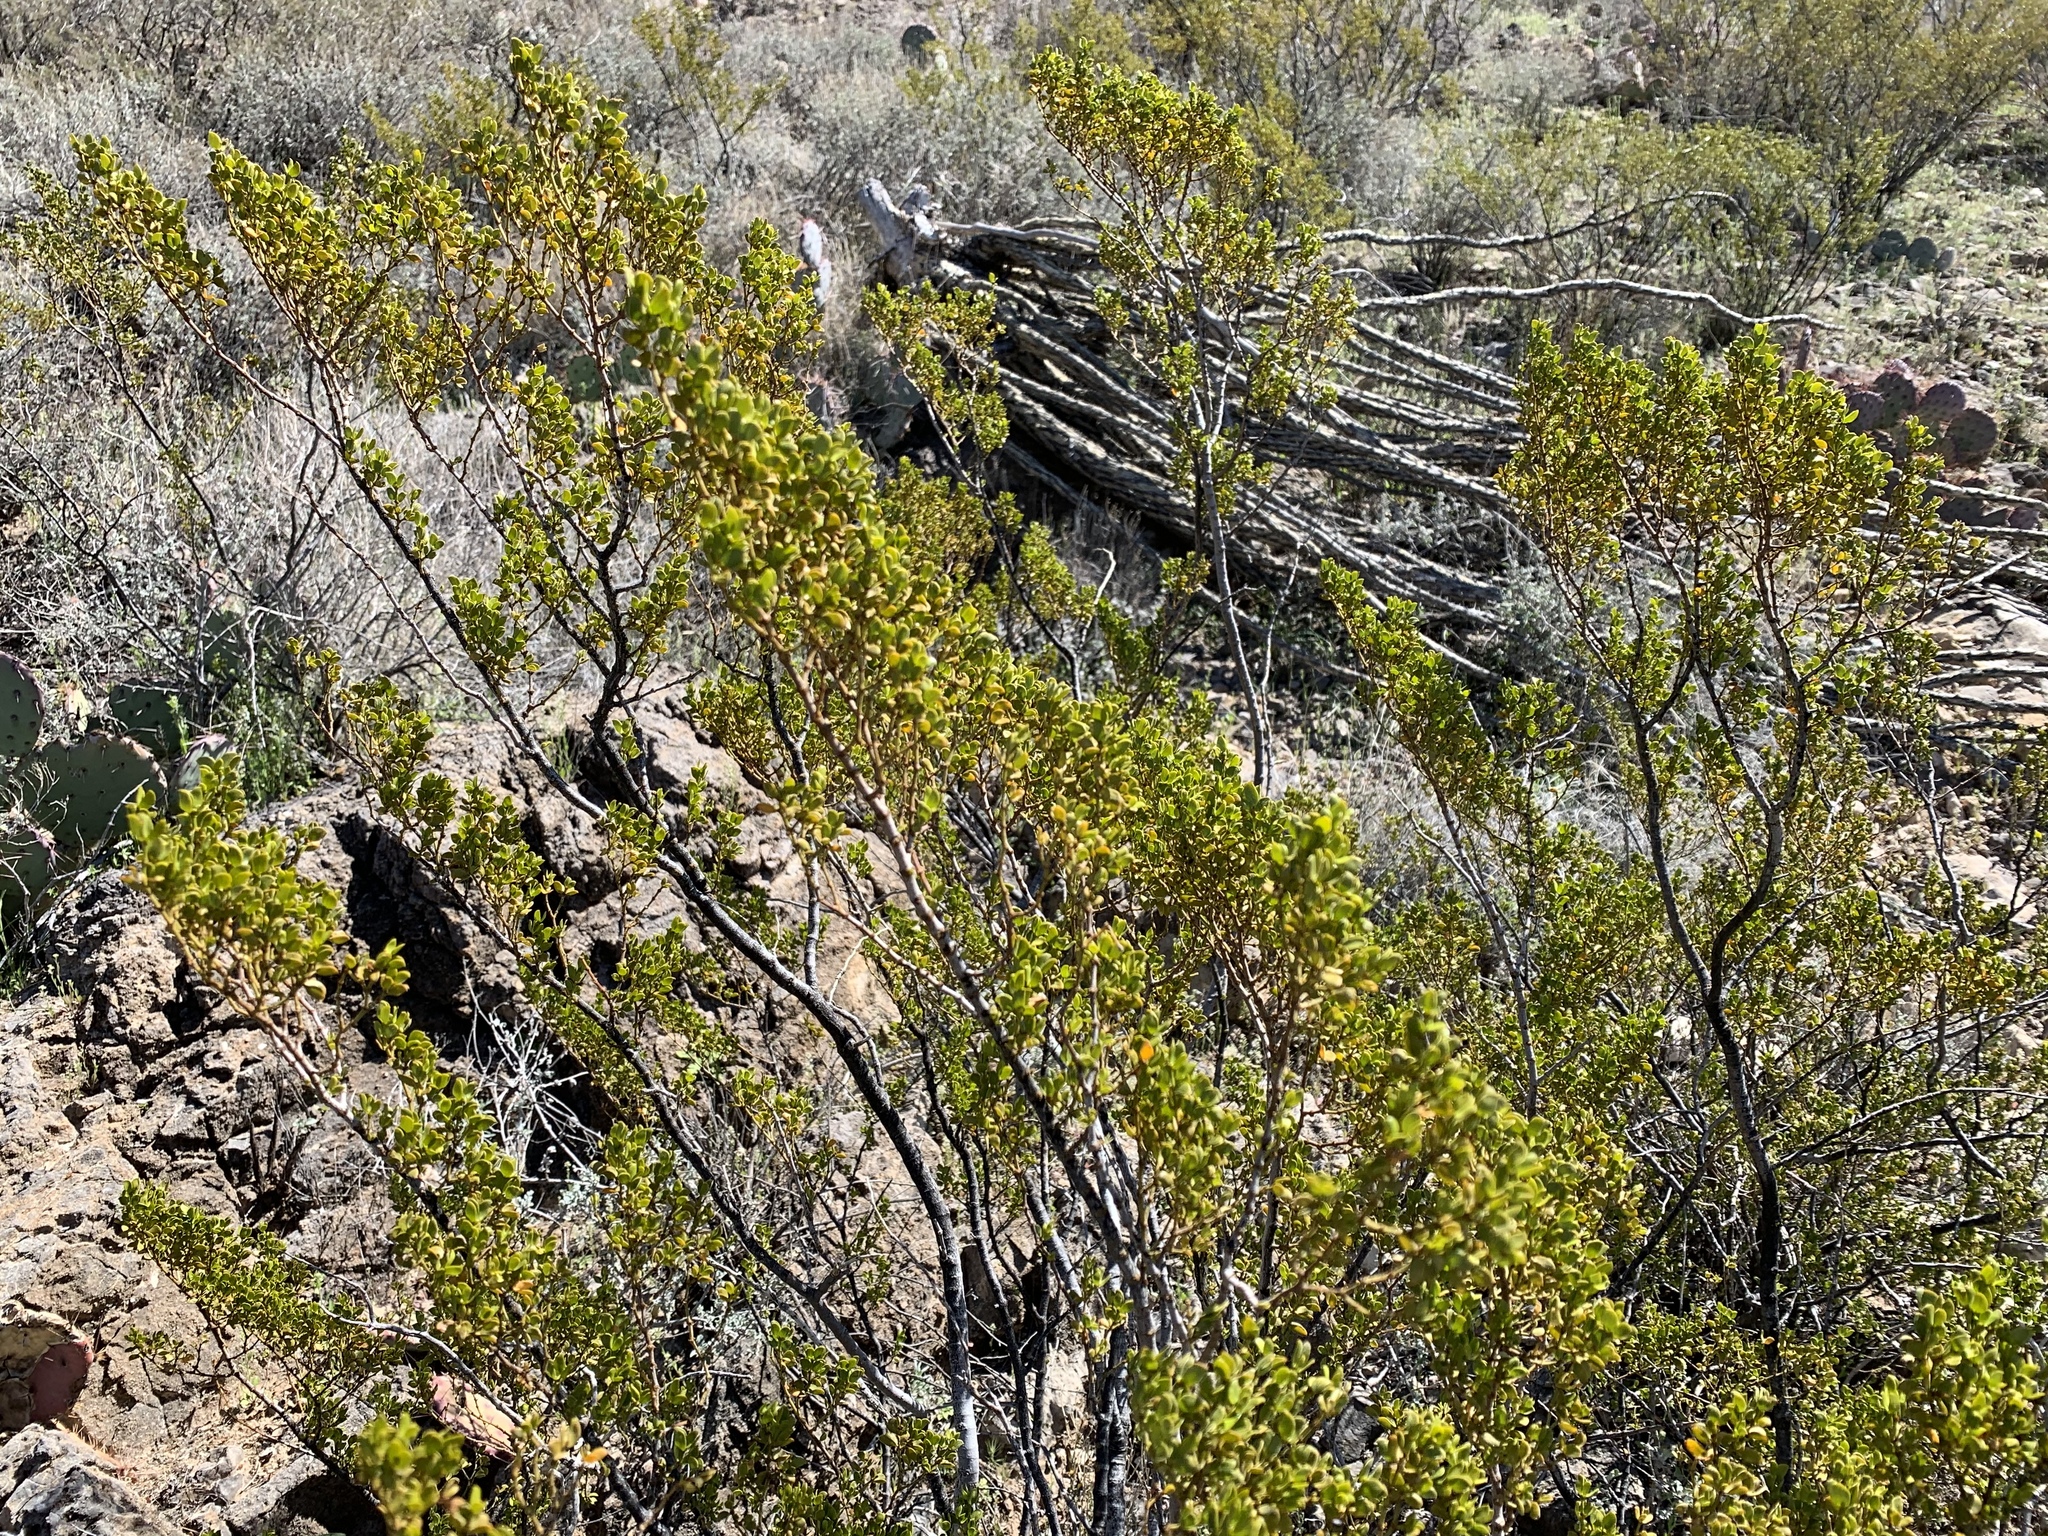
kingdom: Plantae
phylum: Tracheophyta
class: Magnoliopsida
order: Zygophyllales
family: Zygophyllaceae
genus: Larrea
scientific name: Larrea tridentata
